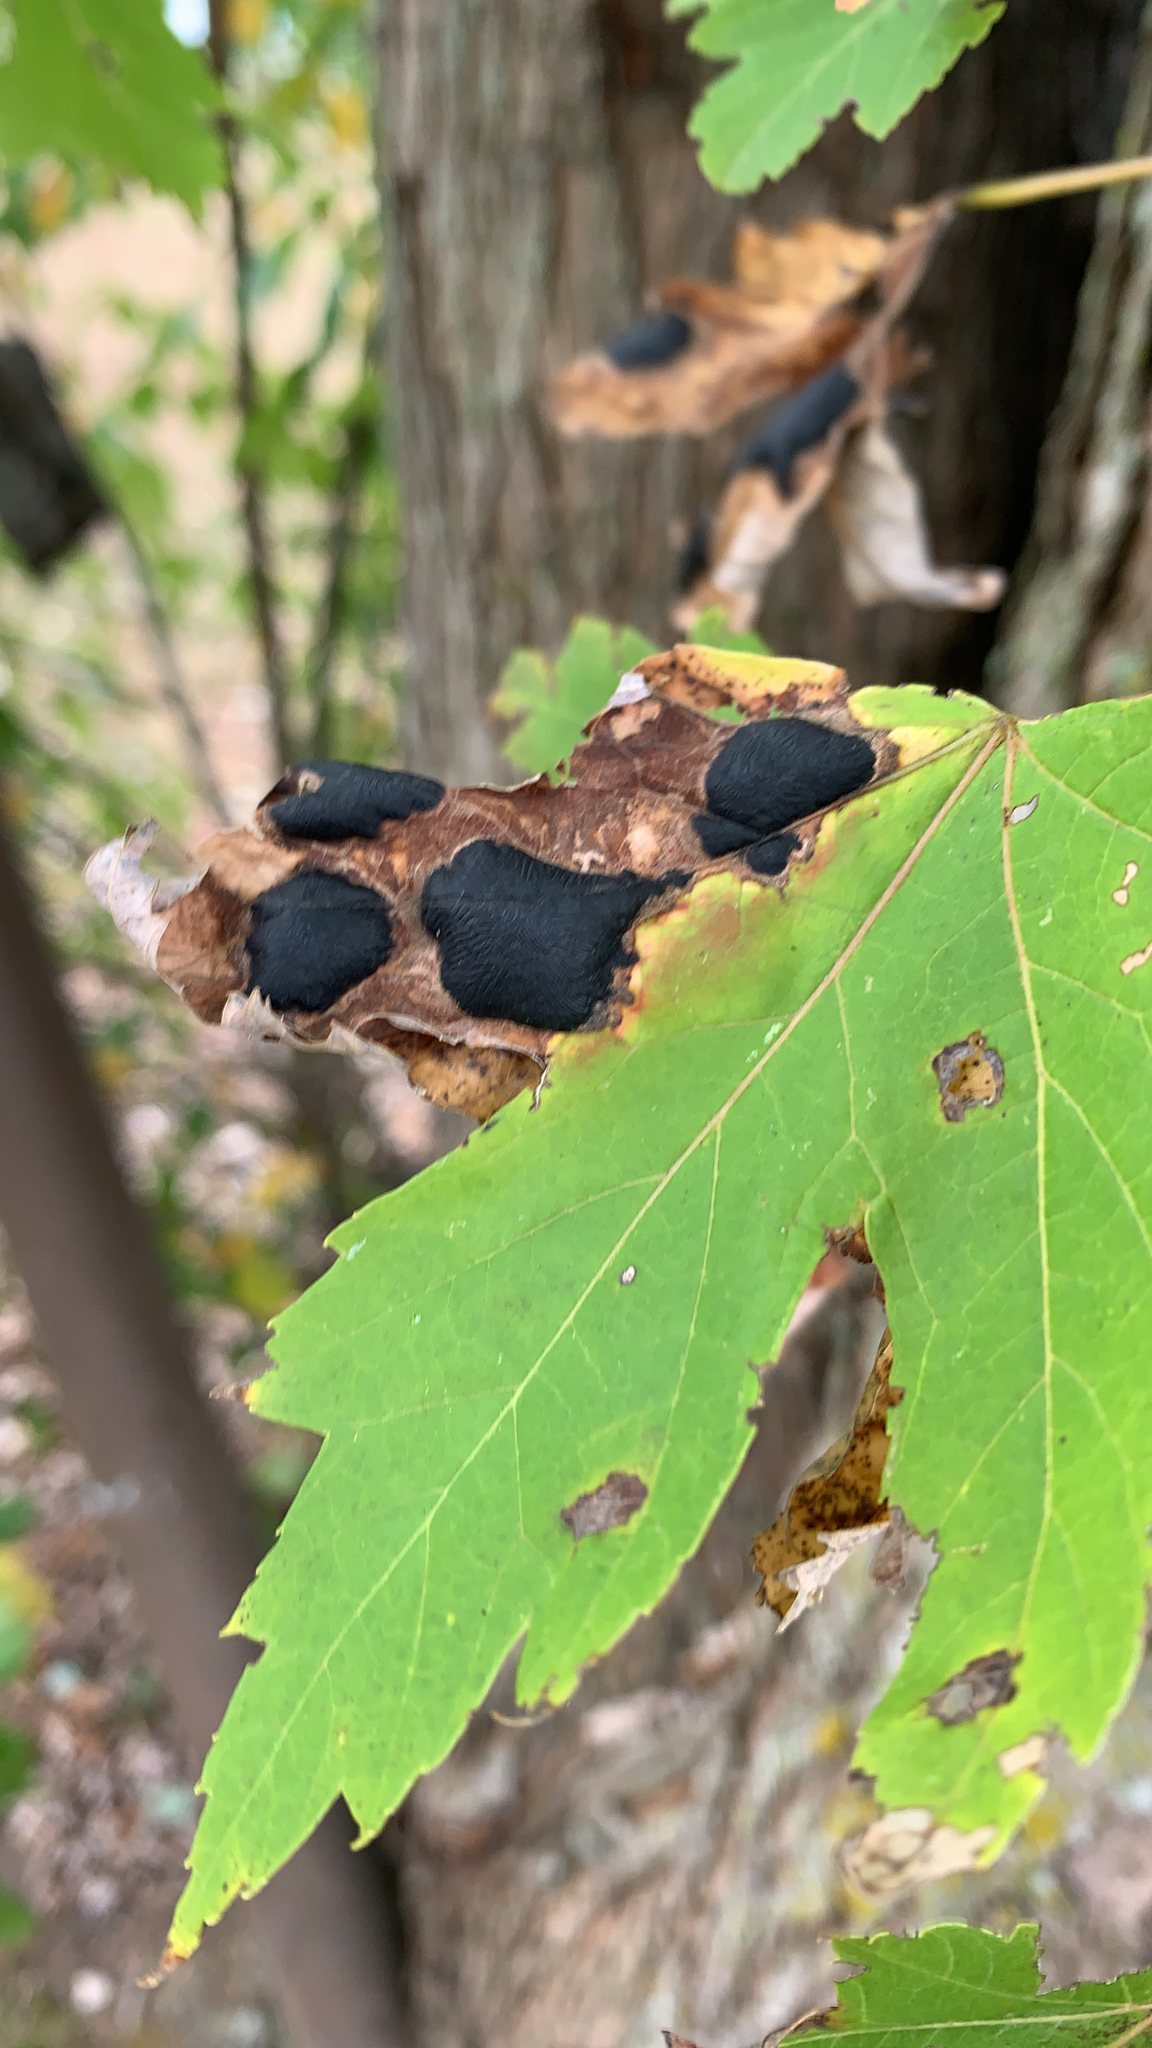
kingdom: Fungi
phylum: Ascomycota
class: Leotiomycetes
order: Rhytismatales
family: Rhytismataceae
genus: Rhytisma
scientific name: Rhytisma americanum
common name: American tar spot
